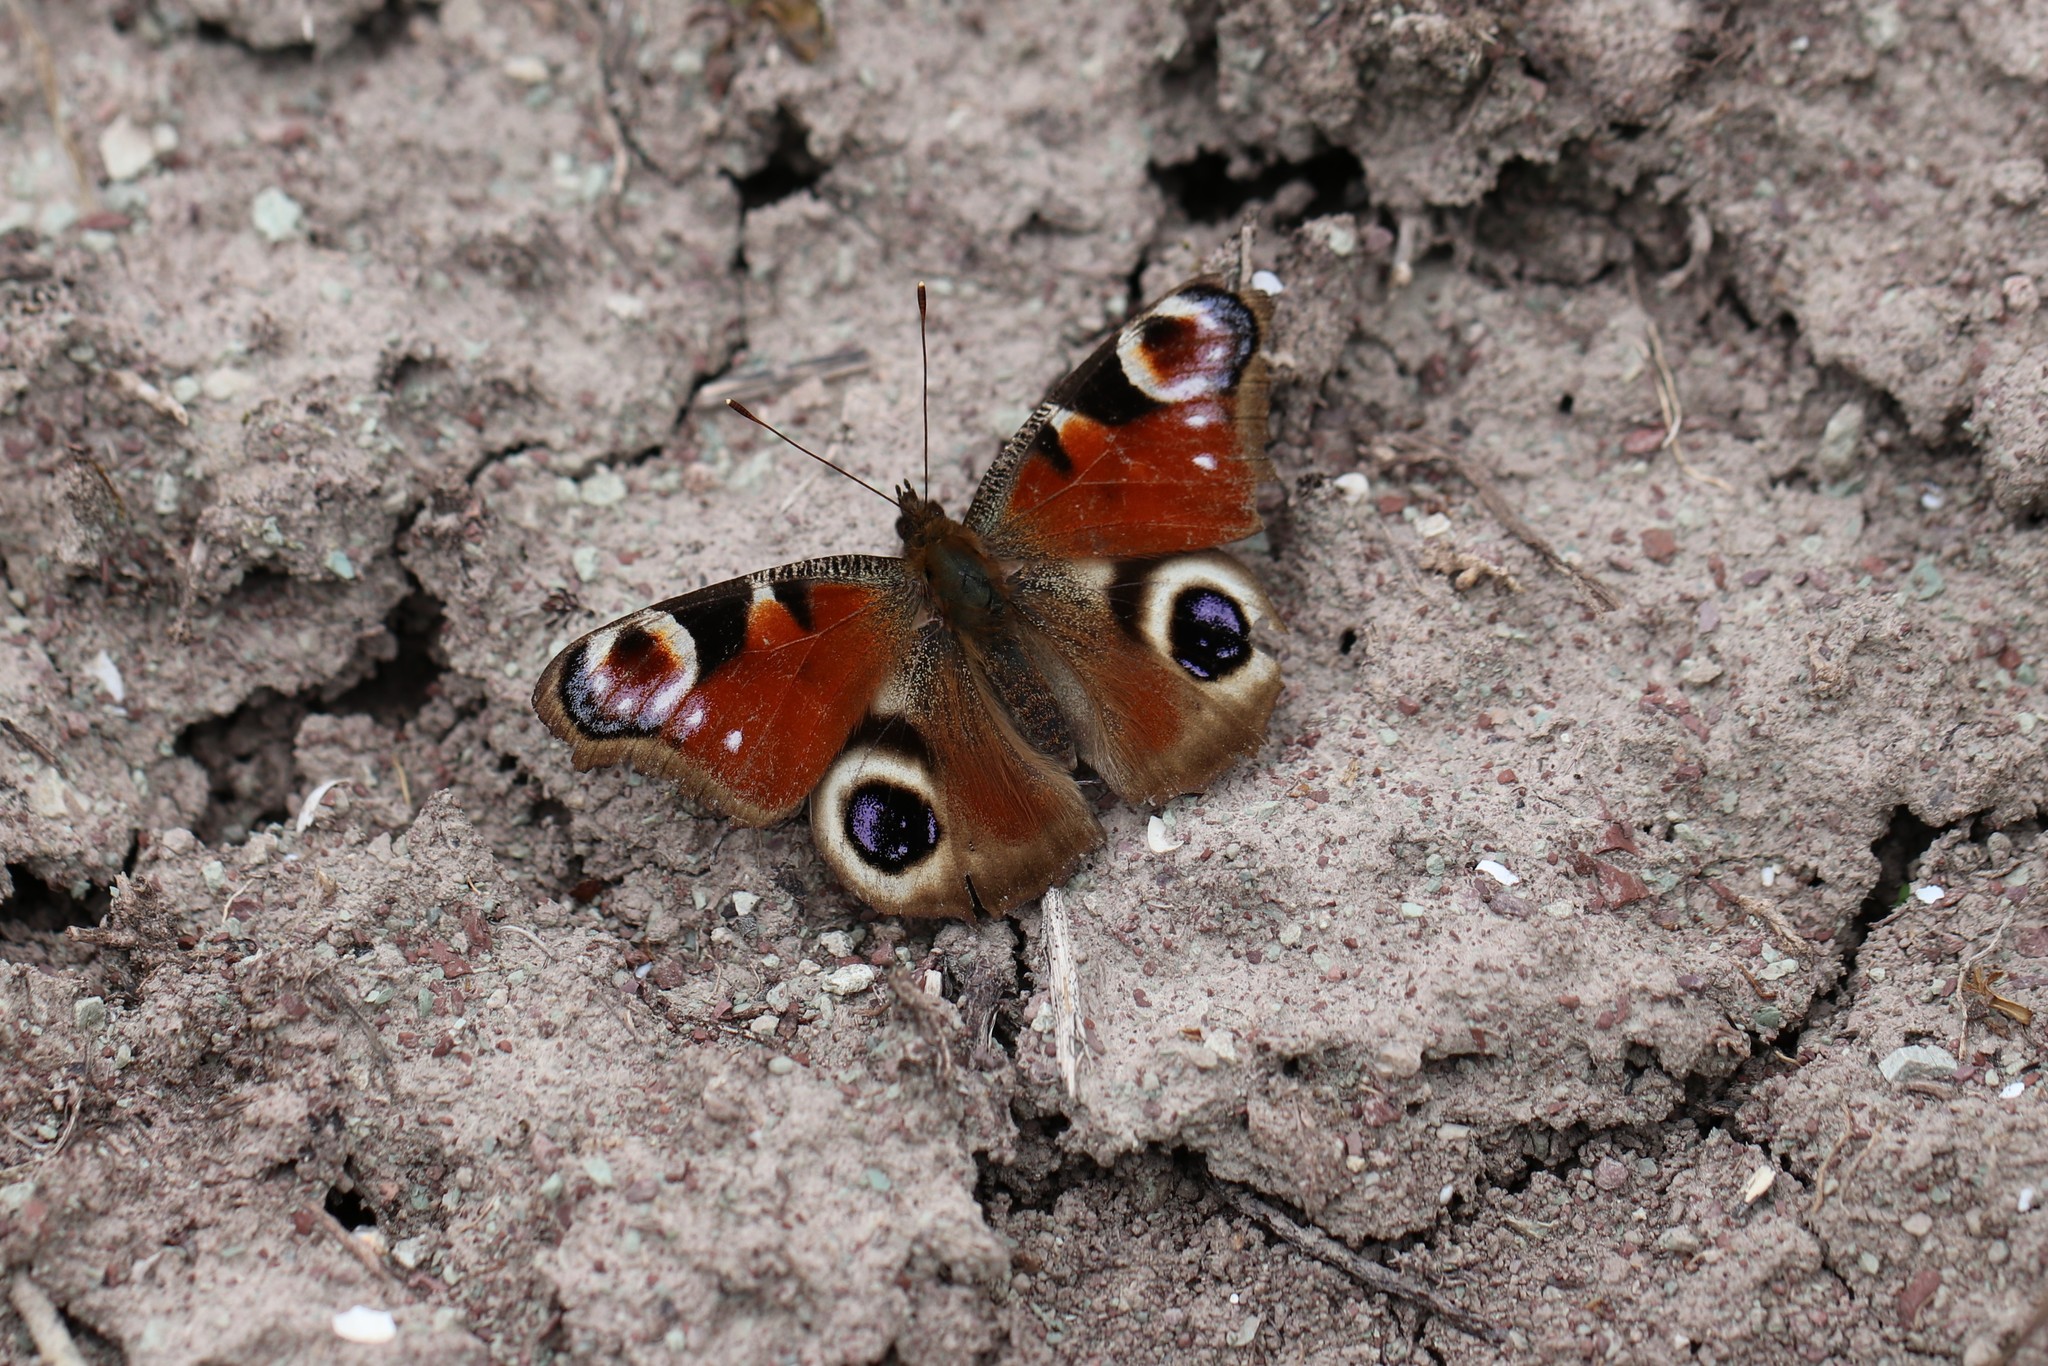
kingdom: Animalia
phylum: Arthropoda
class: Insecta
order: Lepidoptera
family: Nymphalidae
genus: Aglais
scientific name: Aglais io
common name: Peacock
